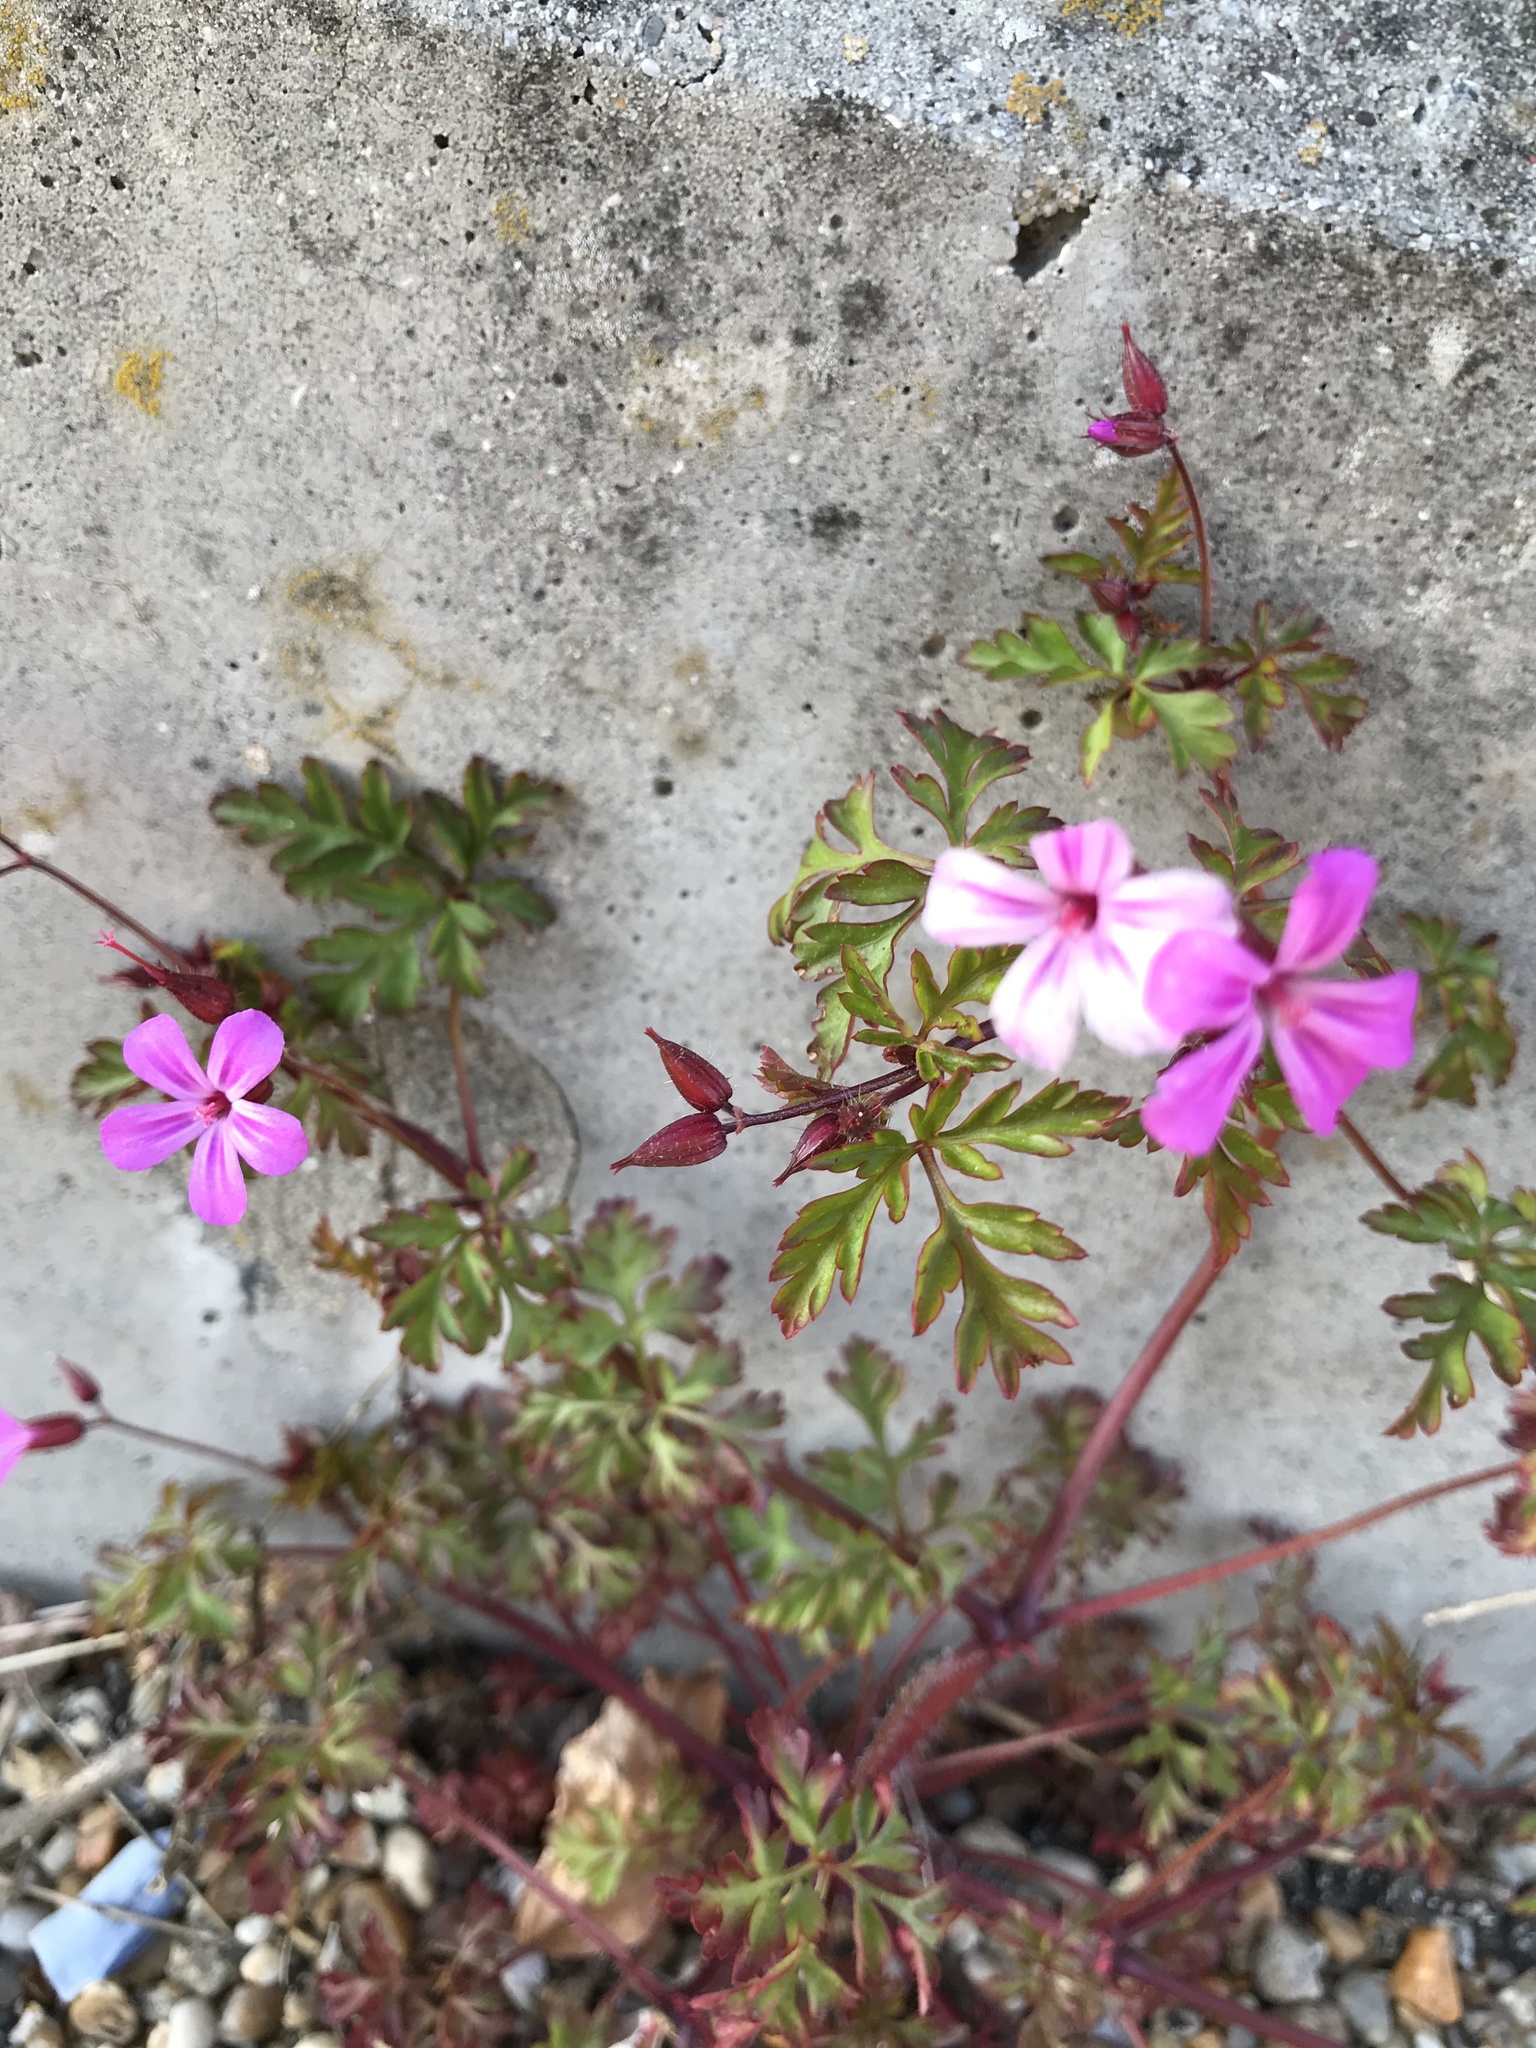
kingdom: Plantae
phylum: Tracheophyta
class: Magnoliopsida
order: Geraniales
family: Geraniaceae
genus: Geranium
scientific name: Geranium robertianum
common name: Herb-robert
